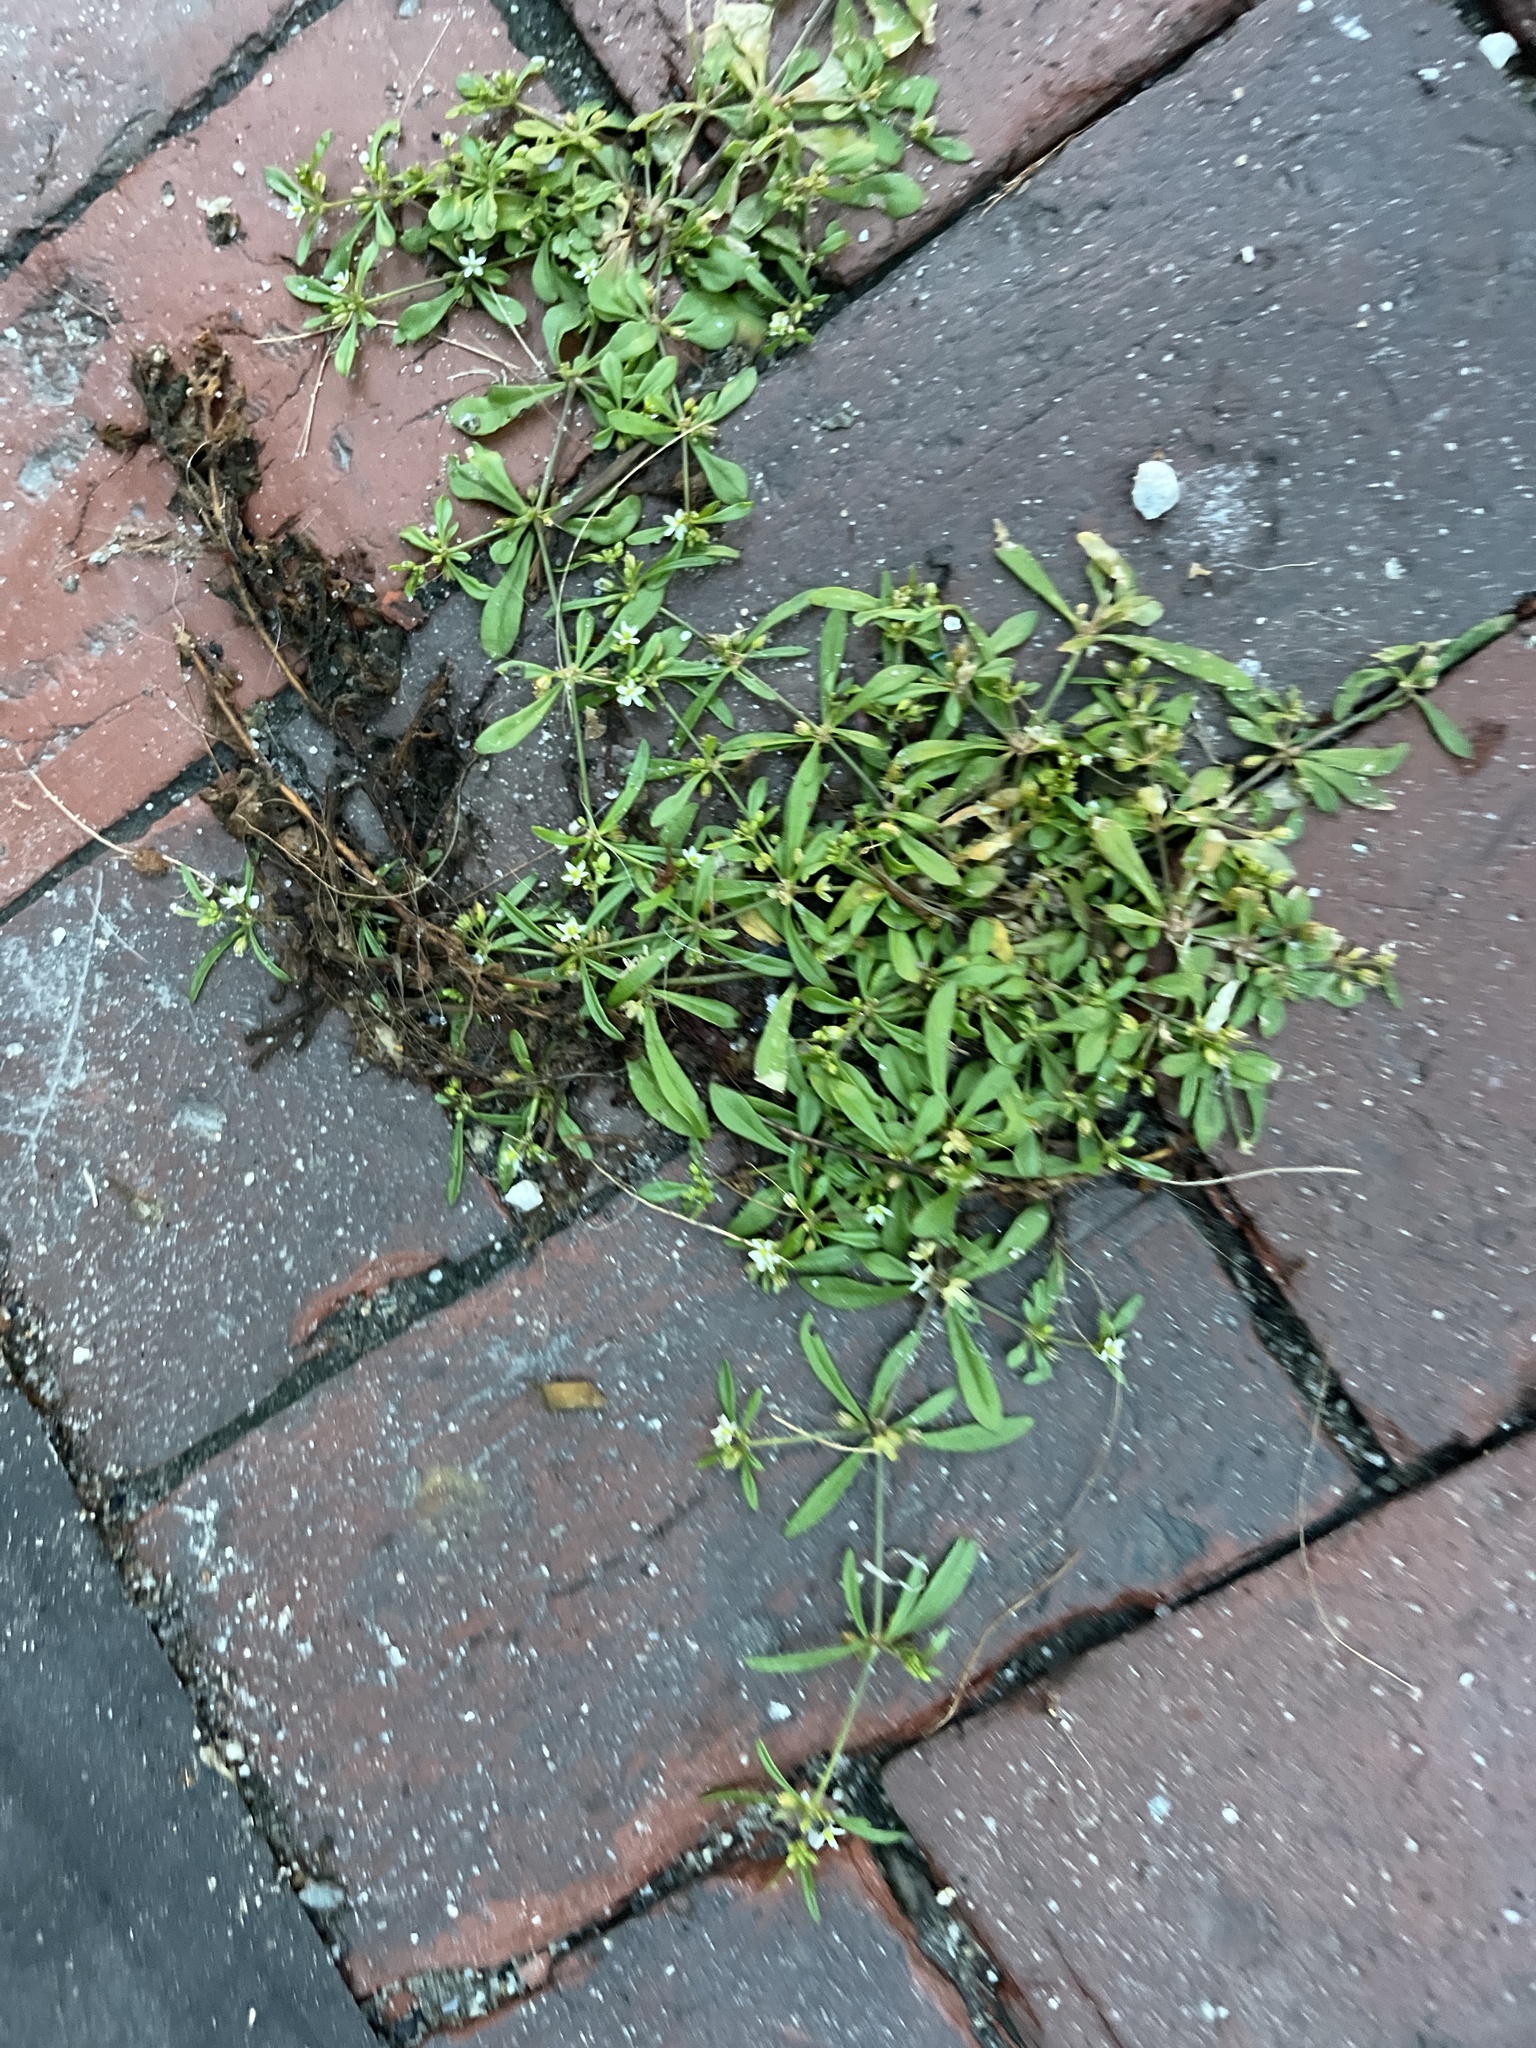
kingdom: Plantae
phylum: Tracheophyta
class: Magnoliopsida
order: Caryophyllales
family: Molluginaceae
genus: Mollugo
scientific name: Mollugo verticillata
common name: Green carpetweed
